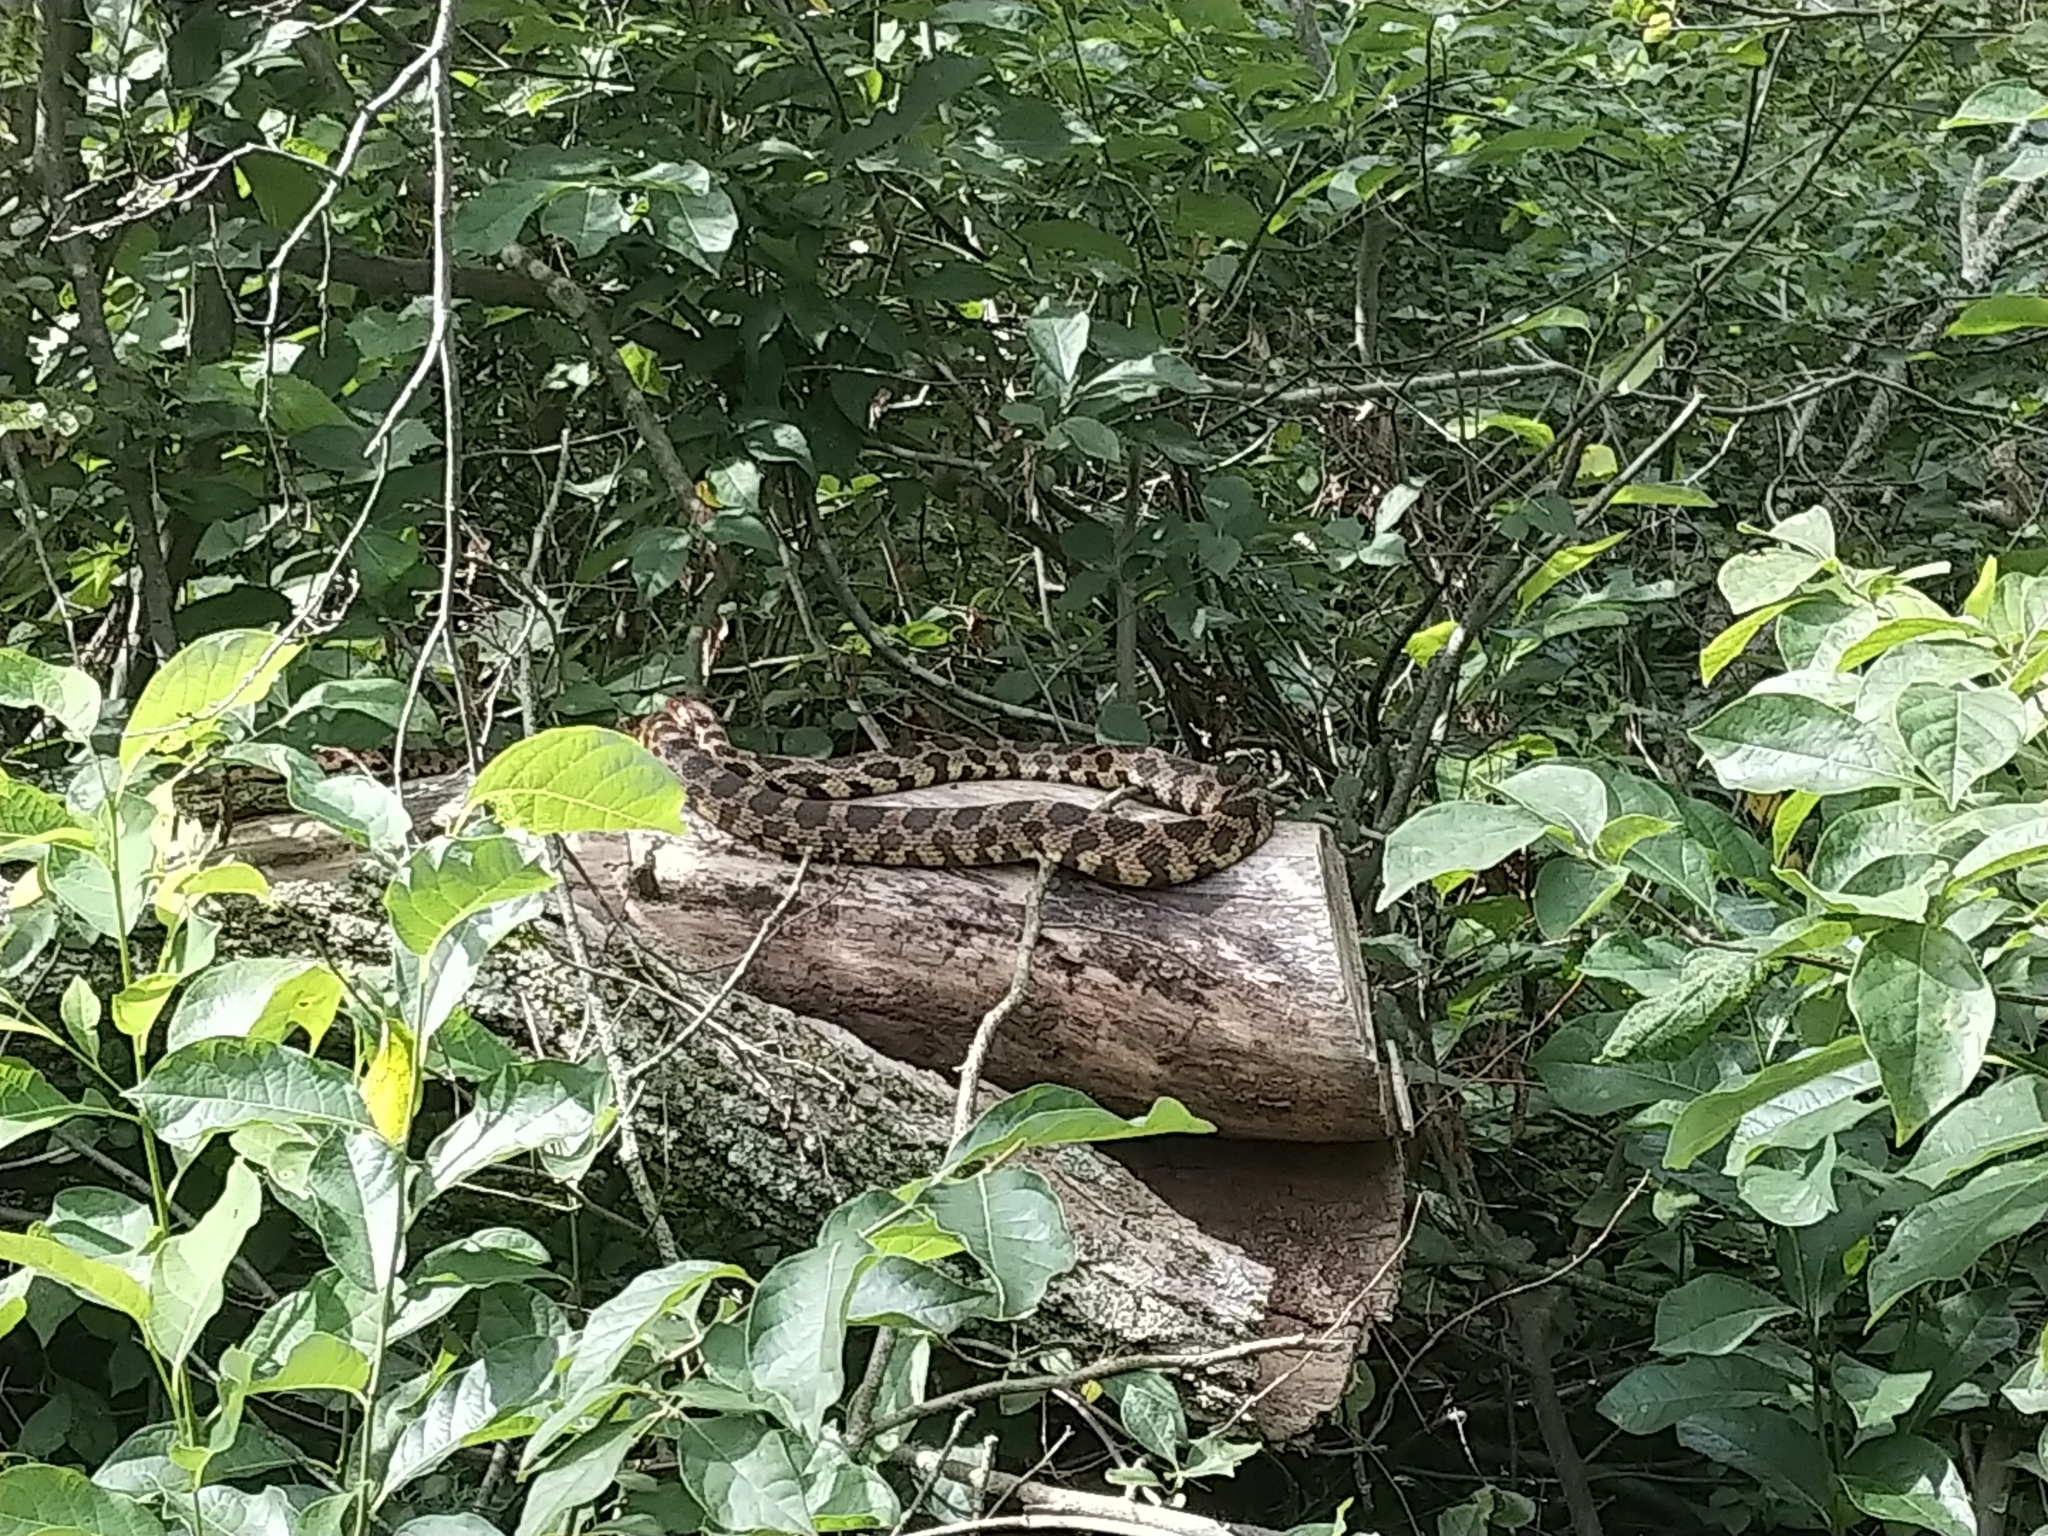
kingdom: Animalia
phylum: Chordata
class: Squamata
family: Colubridae
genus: Pantherophis
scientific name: Pantherophis vulpinus
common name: Eastern fox snake
